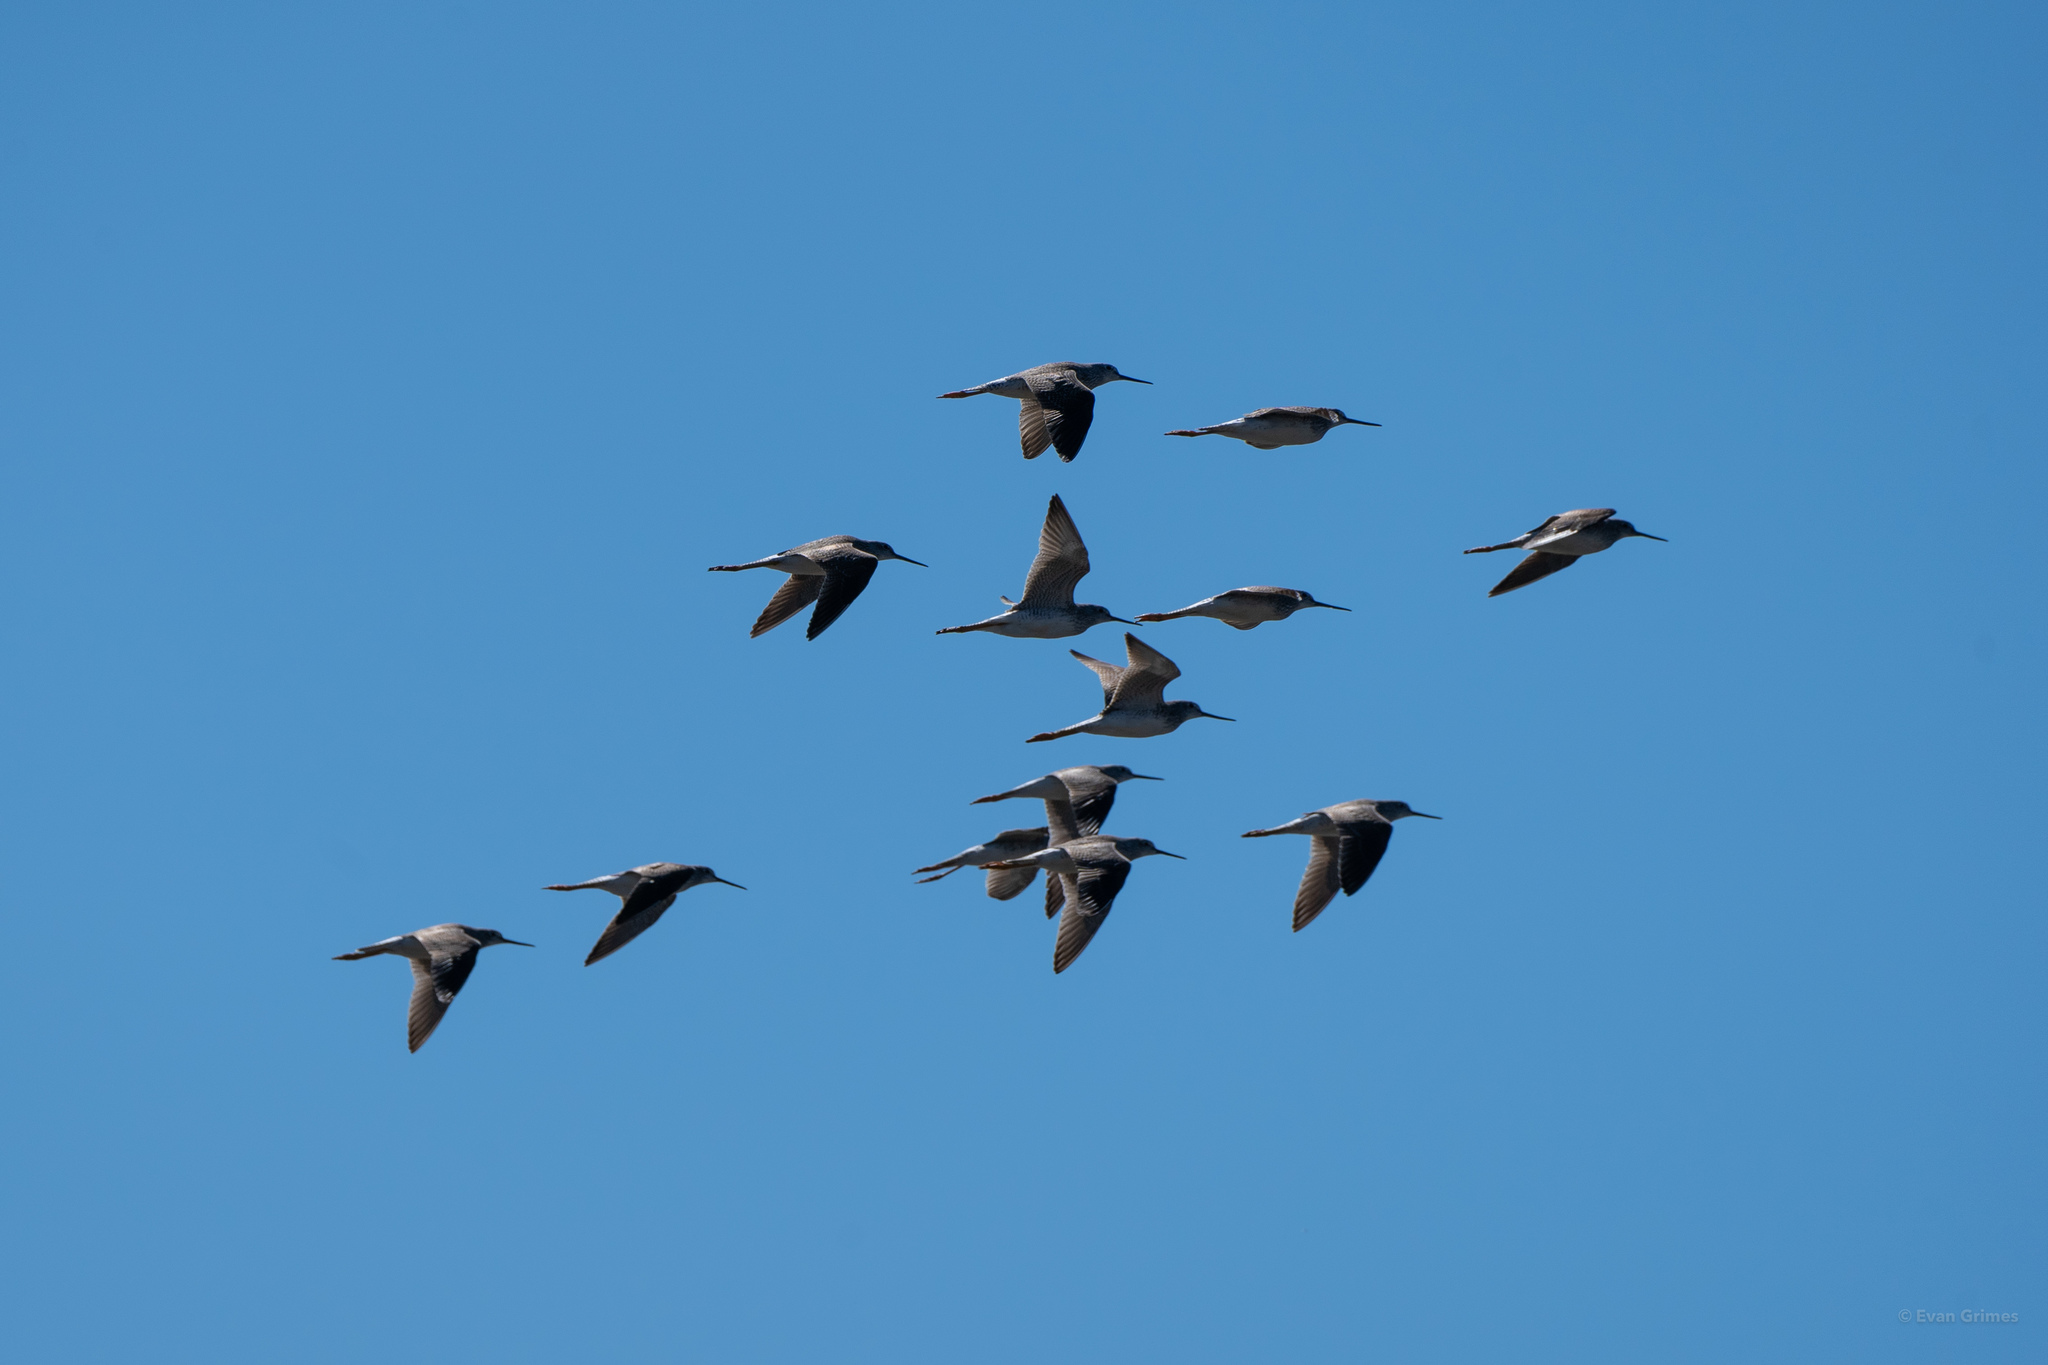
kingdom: Animalia
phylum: Chordata
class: Aves
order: Charadriiformes
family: Scolopacidae
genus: Tringa
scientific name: Tringa melanoleuca
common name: Greater yellowlegs
